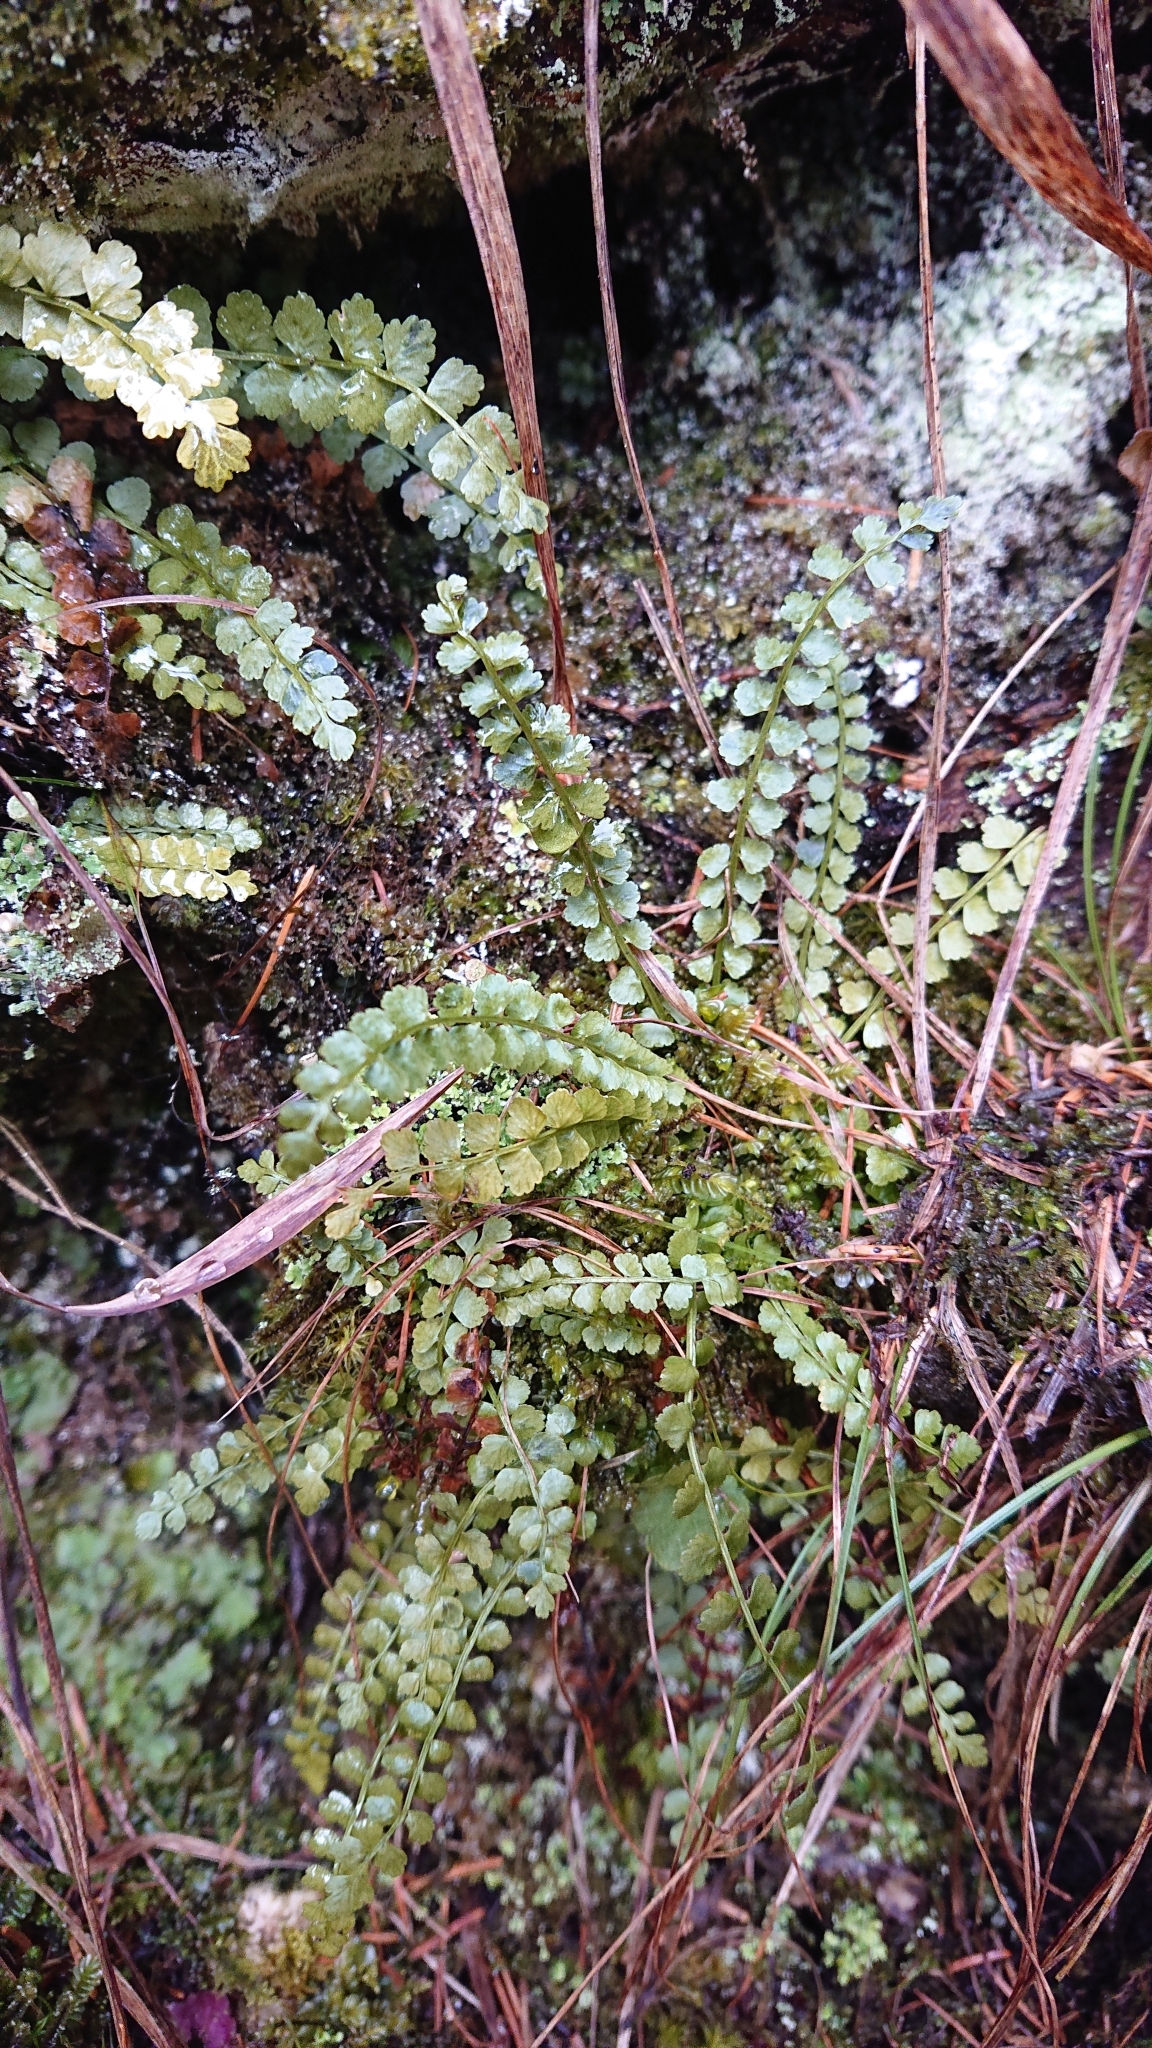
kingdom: Plantae
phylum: Tracheophyta
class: Polypodiopsida
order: Polypodiales
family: Aspleniaceae
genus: Asplenium
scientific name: Asplenium viride
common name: Green spleenwort
